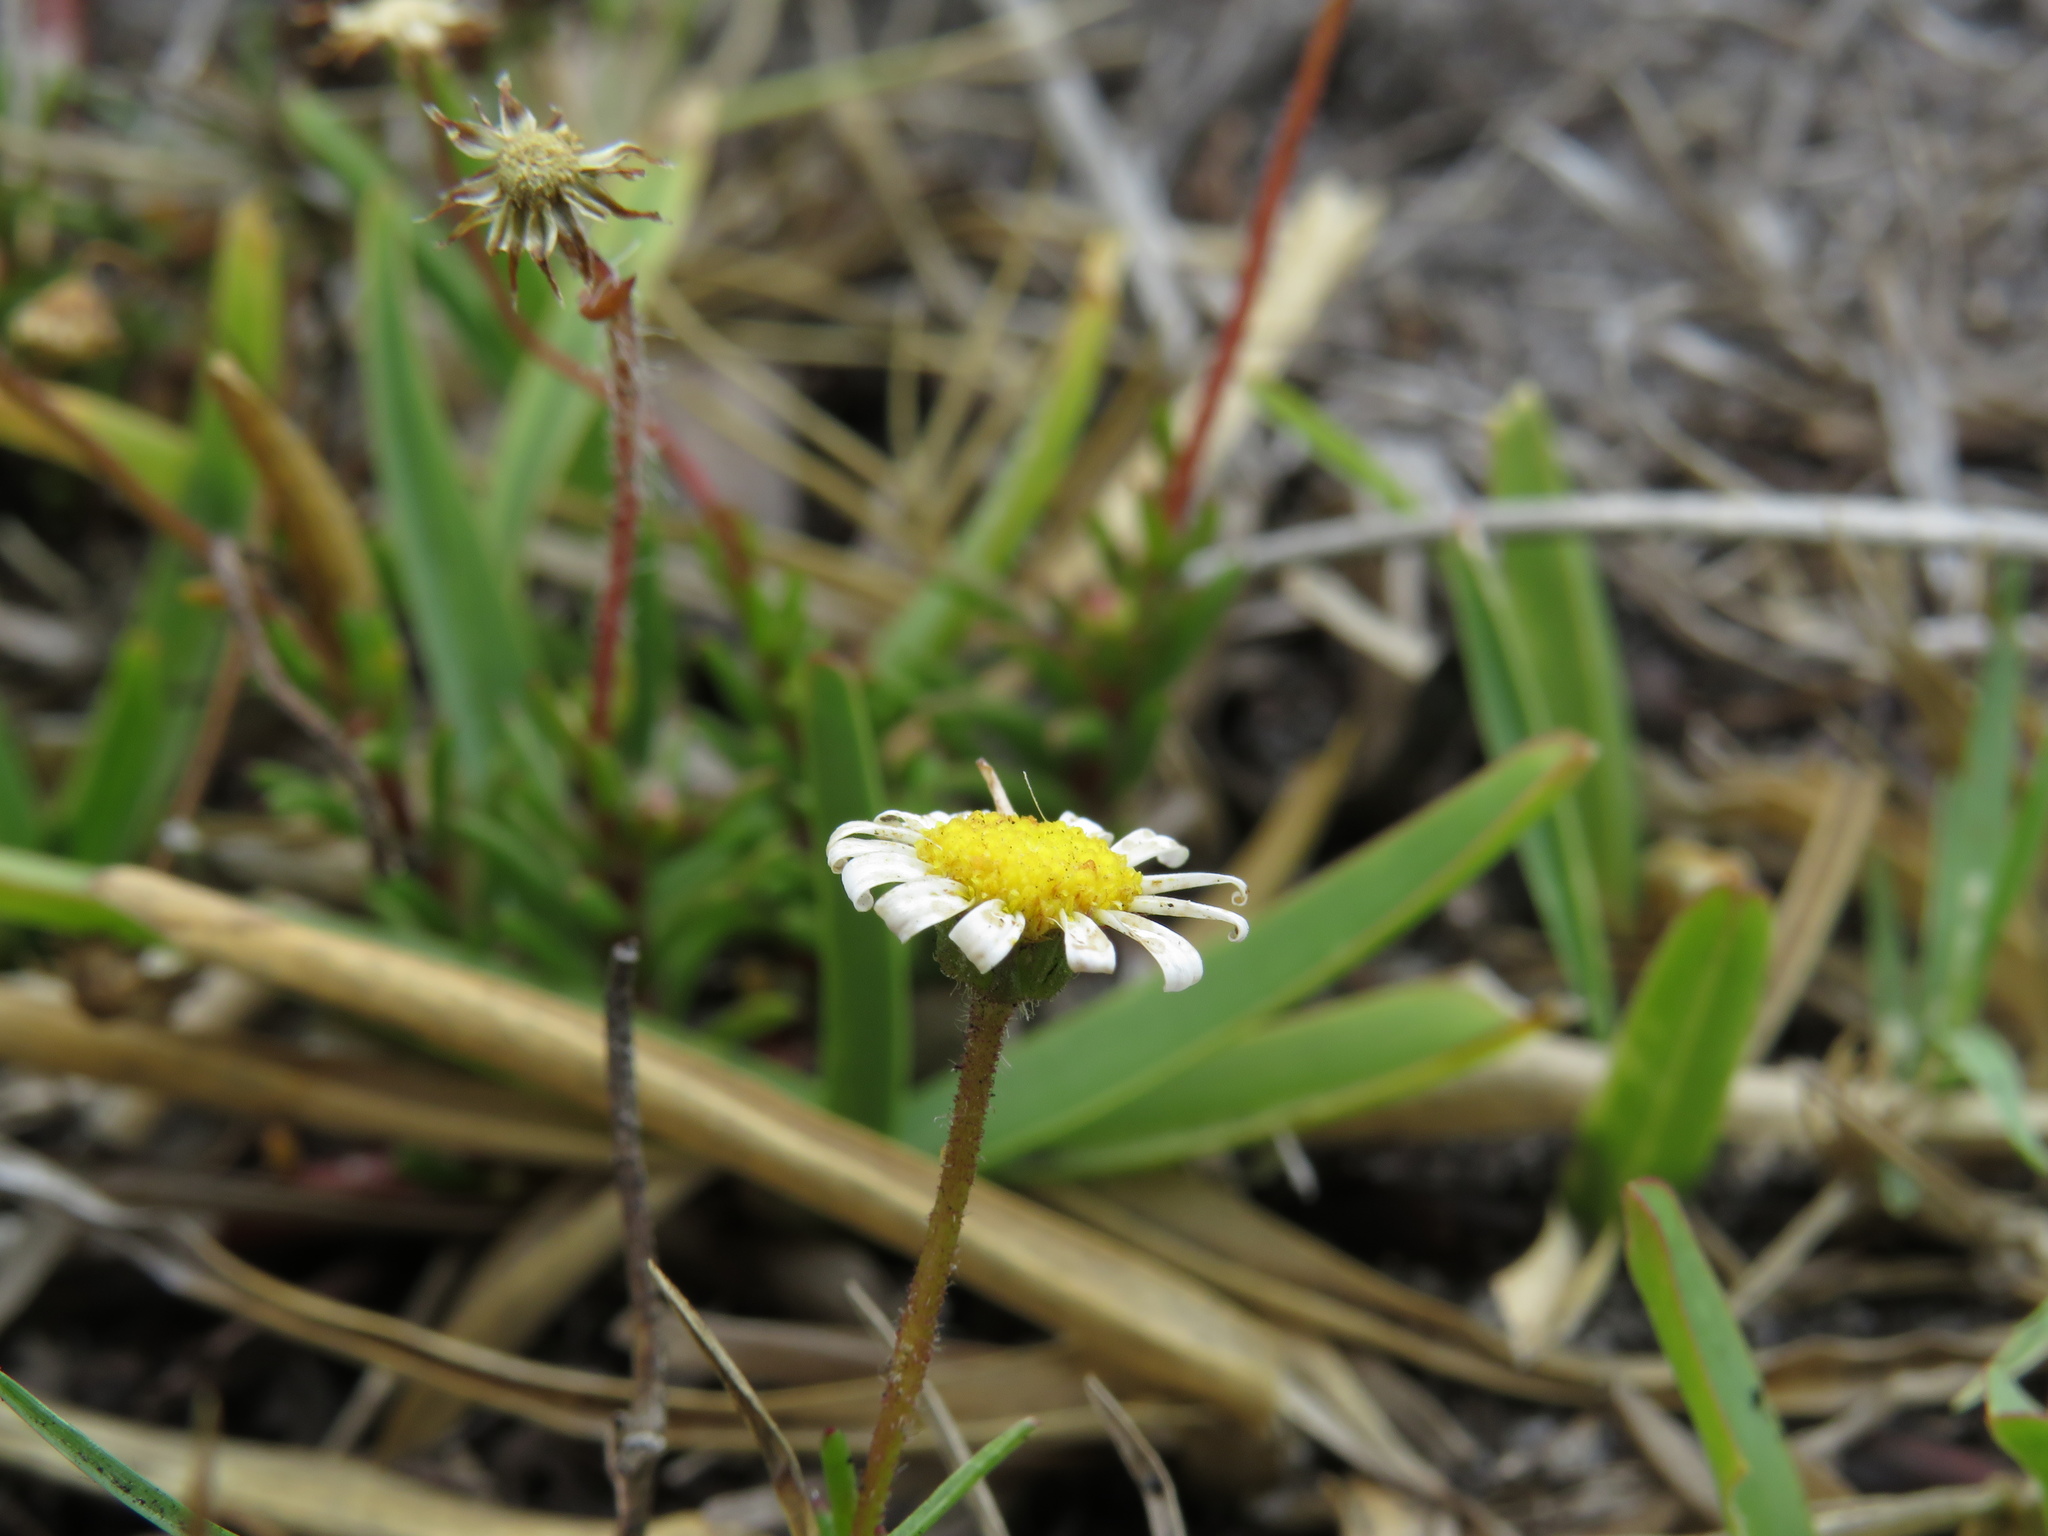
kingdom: Plantae
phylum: Tracheophyta
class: Magnoliopsida
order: Asterales
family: Asteraceae
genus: Felicia
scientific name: Felicia tenella
